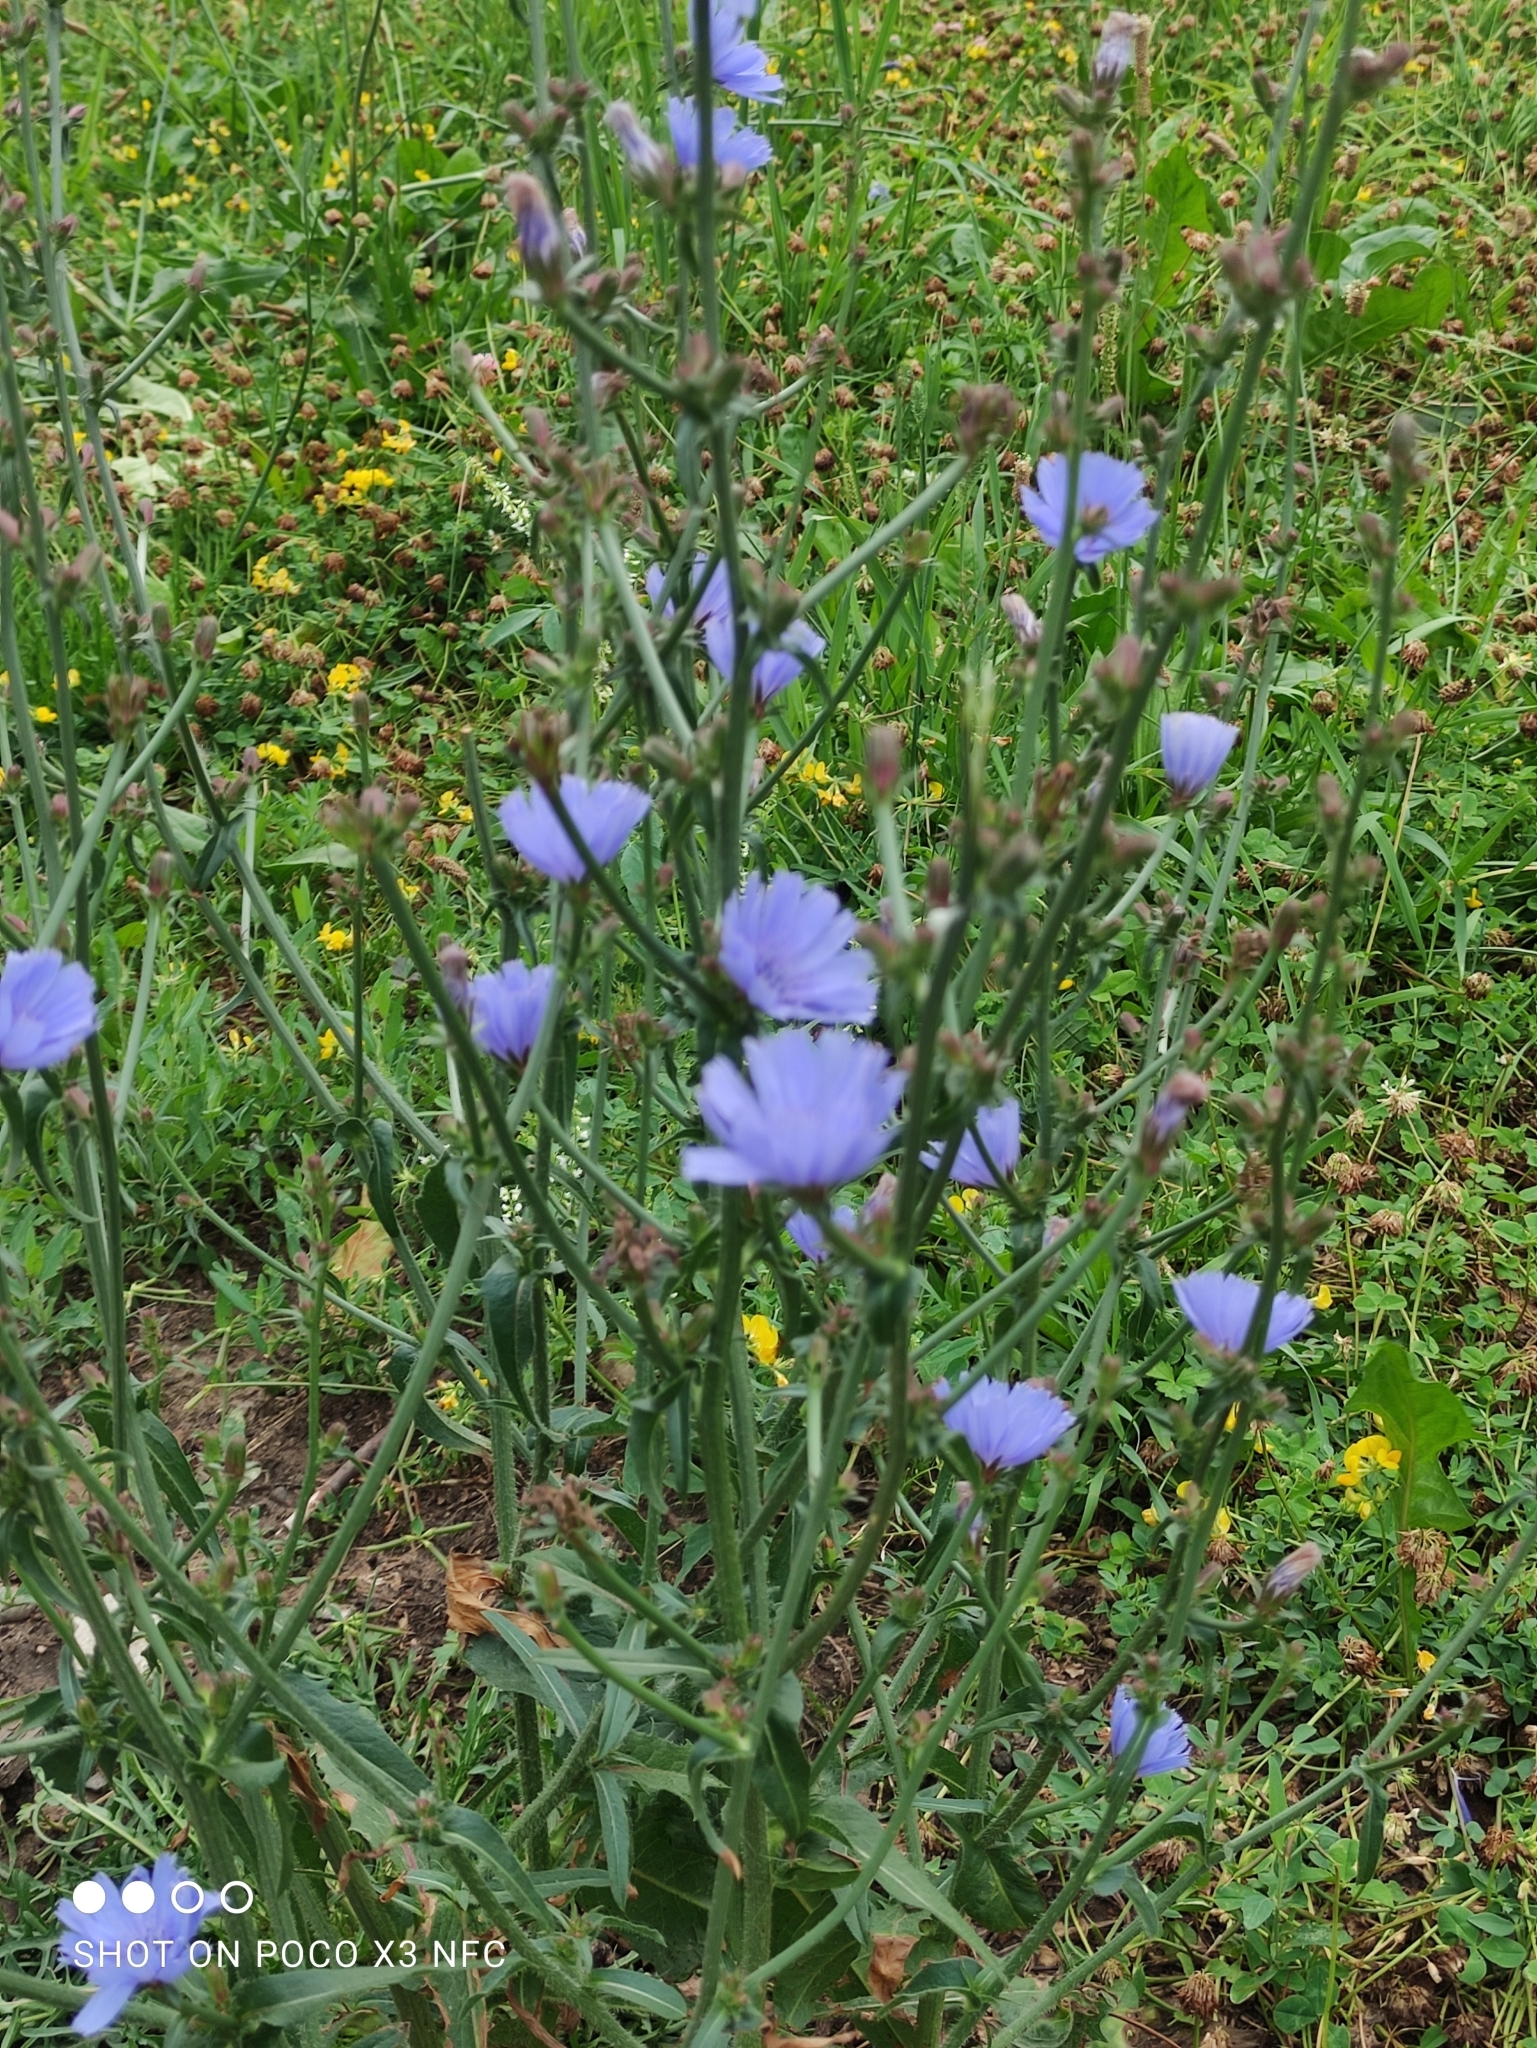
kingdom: Plantae
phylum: Tracheophyta
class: Magnoliopsida
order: Asterales
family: Asteraceae
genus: Cichorium
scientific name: Cichorium intybus
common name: Chicory
